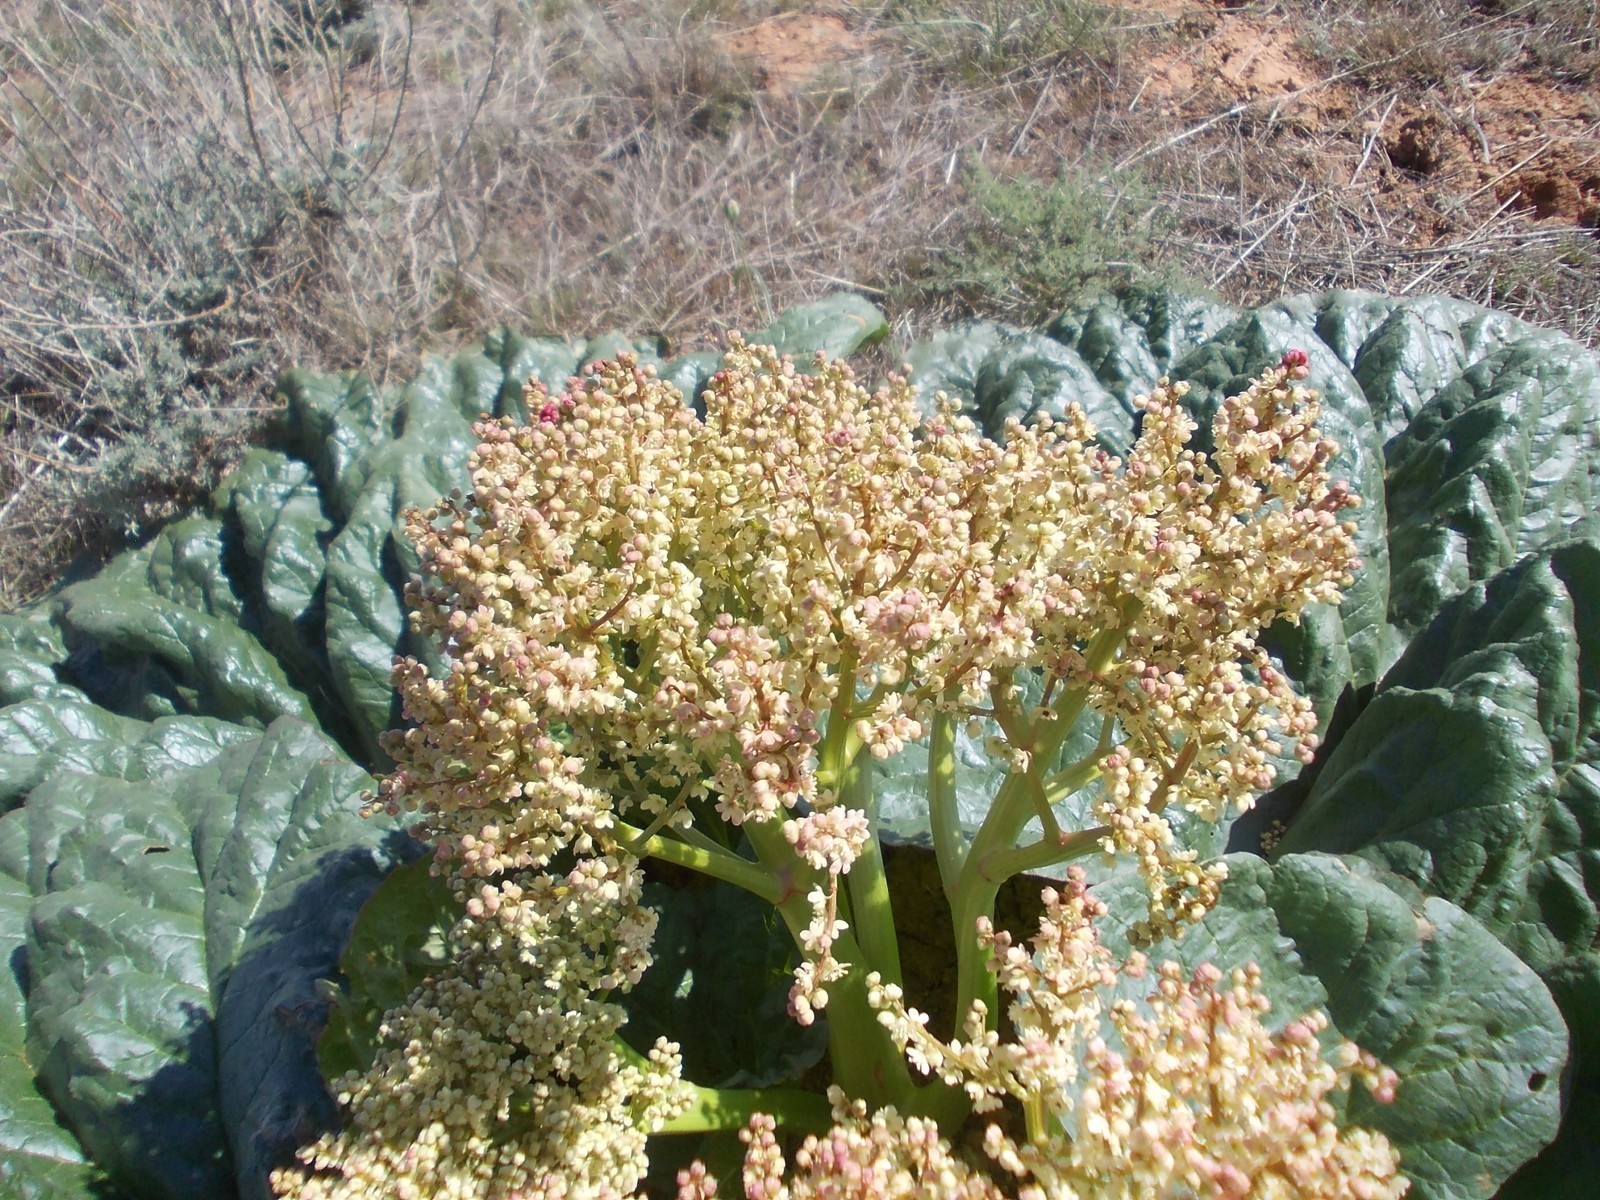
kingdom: Plantae
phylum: Tracheophyta
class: Magnoliopsida
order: Caryophyllales
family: Polygonaceae
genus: Rheum
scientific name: Rheum tataricum
